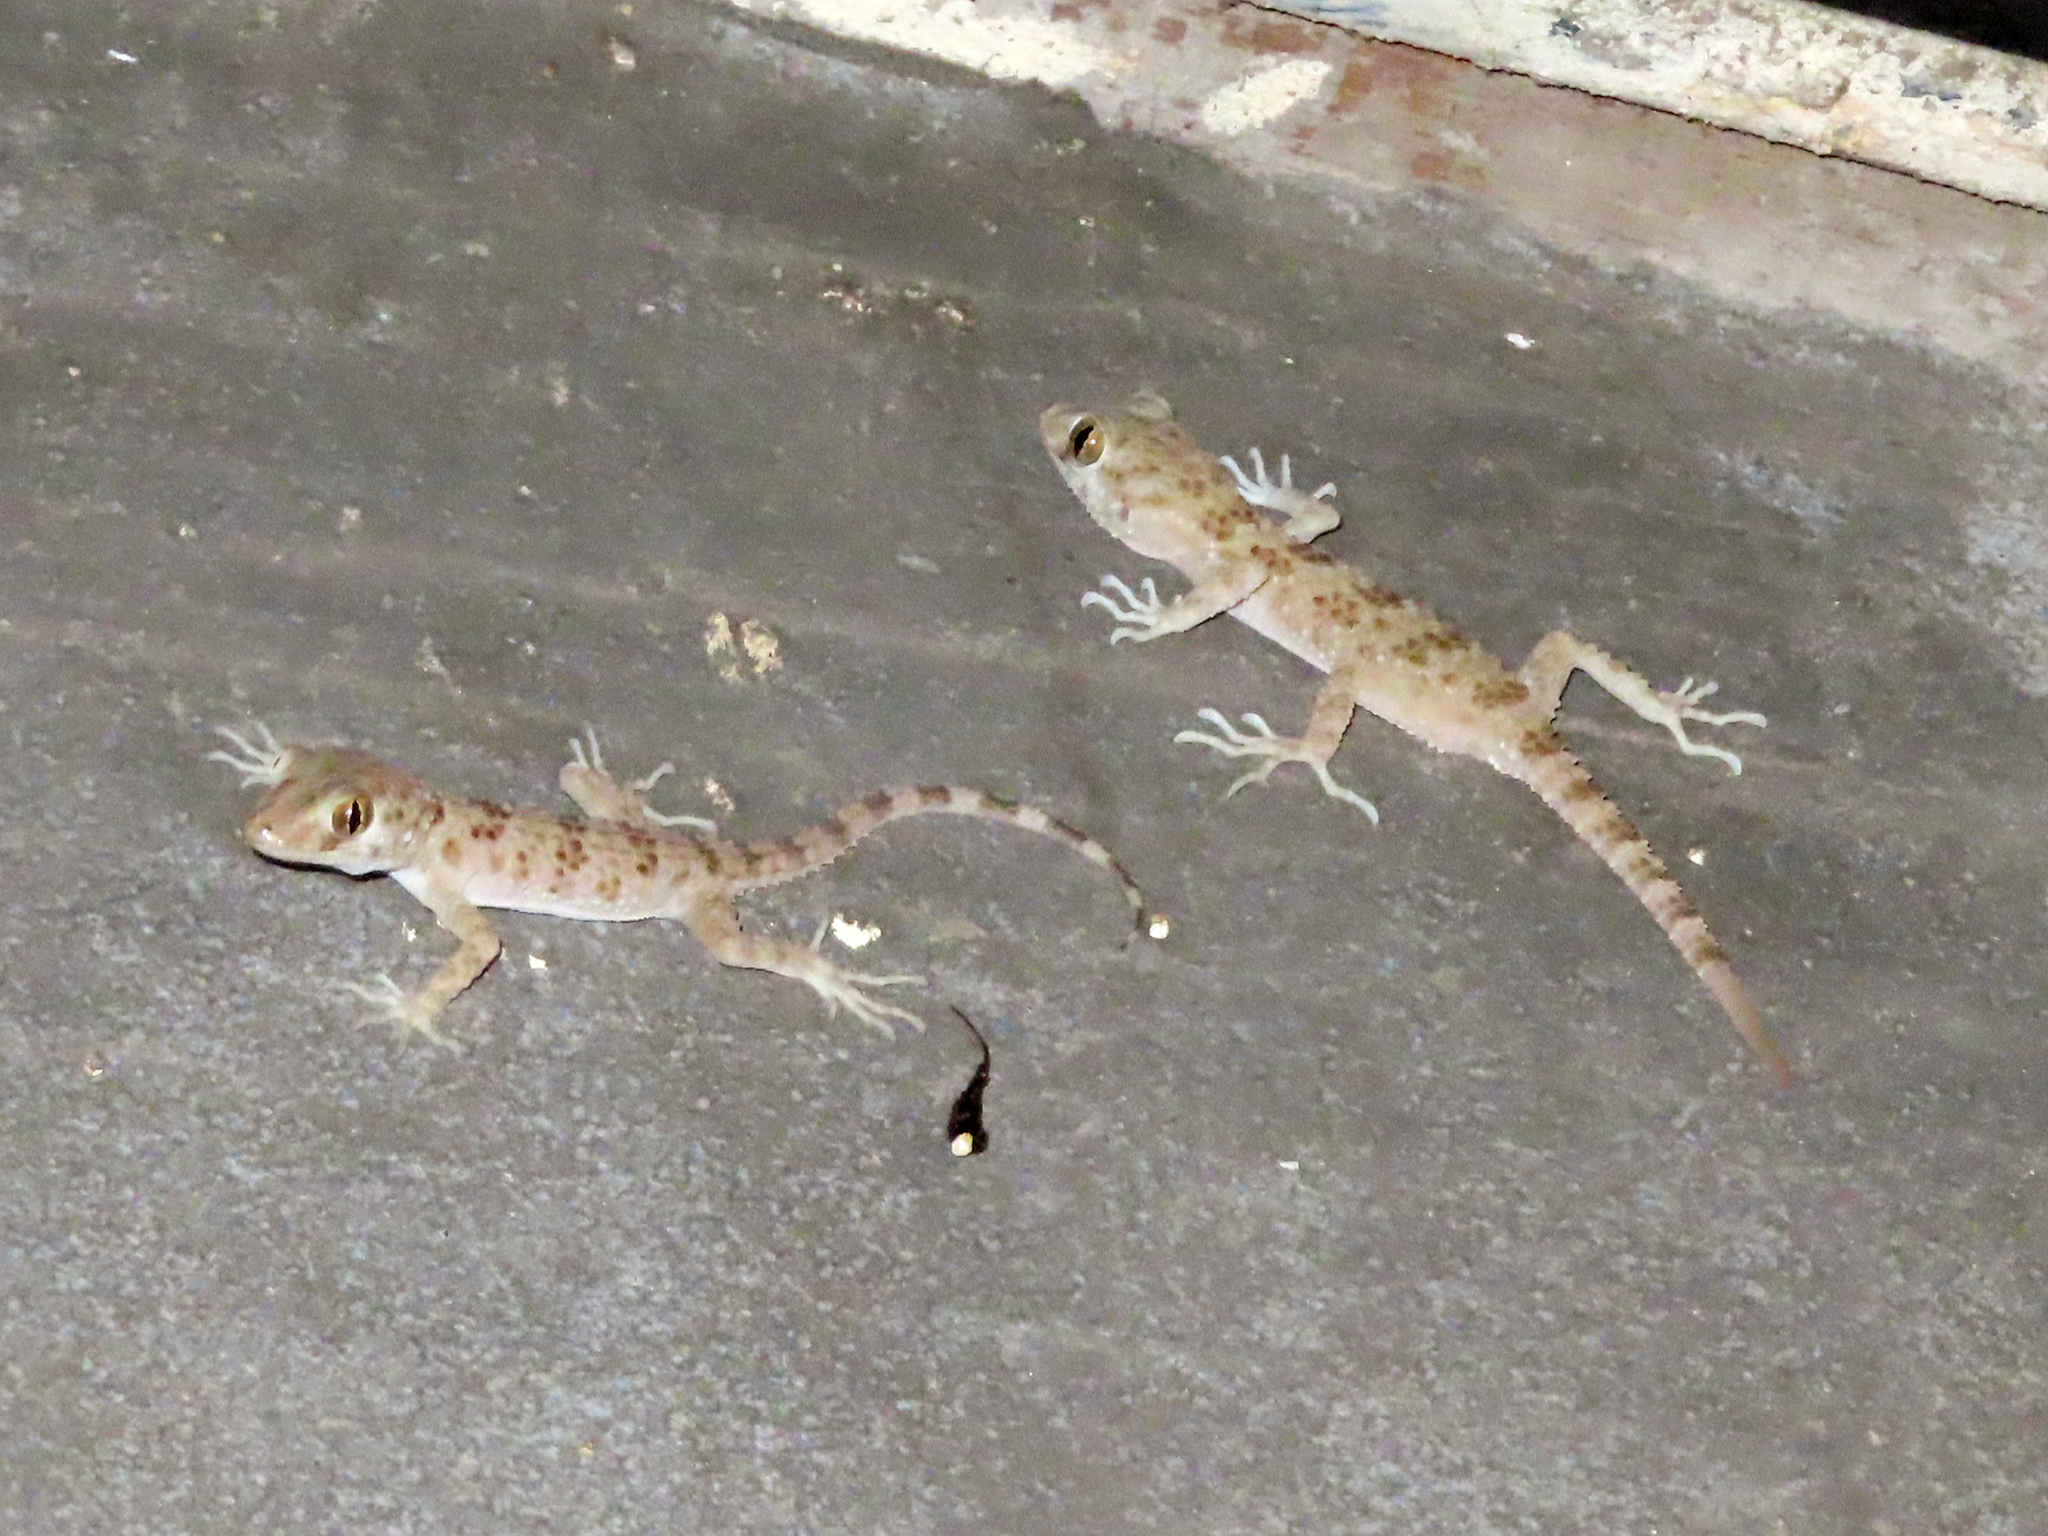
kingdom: Animalia
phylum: Chordata
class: Squamata
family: Gekkonidae
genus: Tenuidactylus
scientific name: Tenuidactylus caspius
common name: Caspian bent-toed gecko
